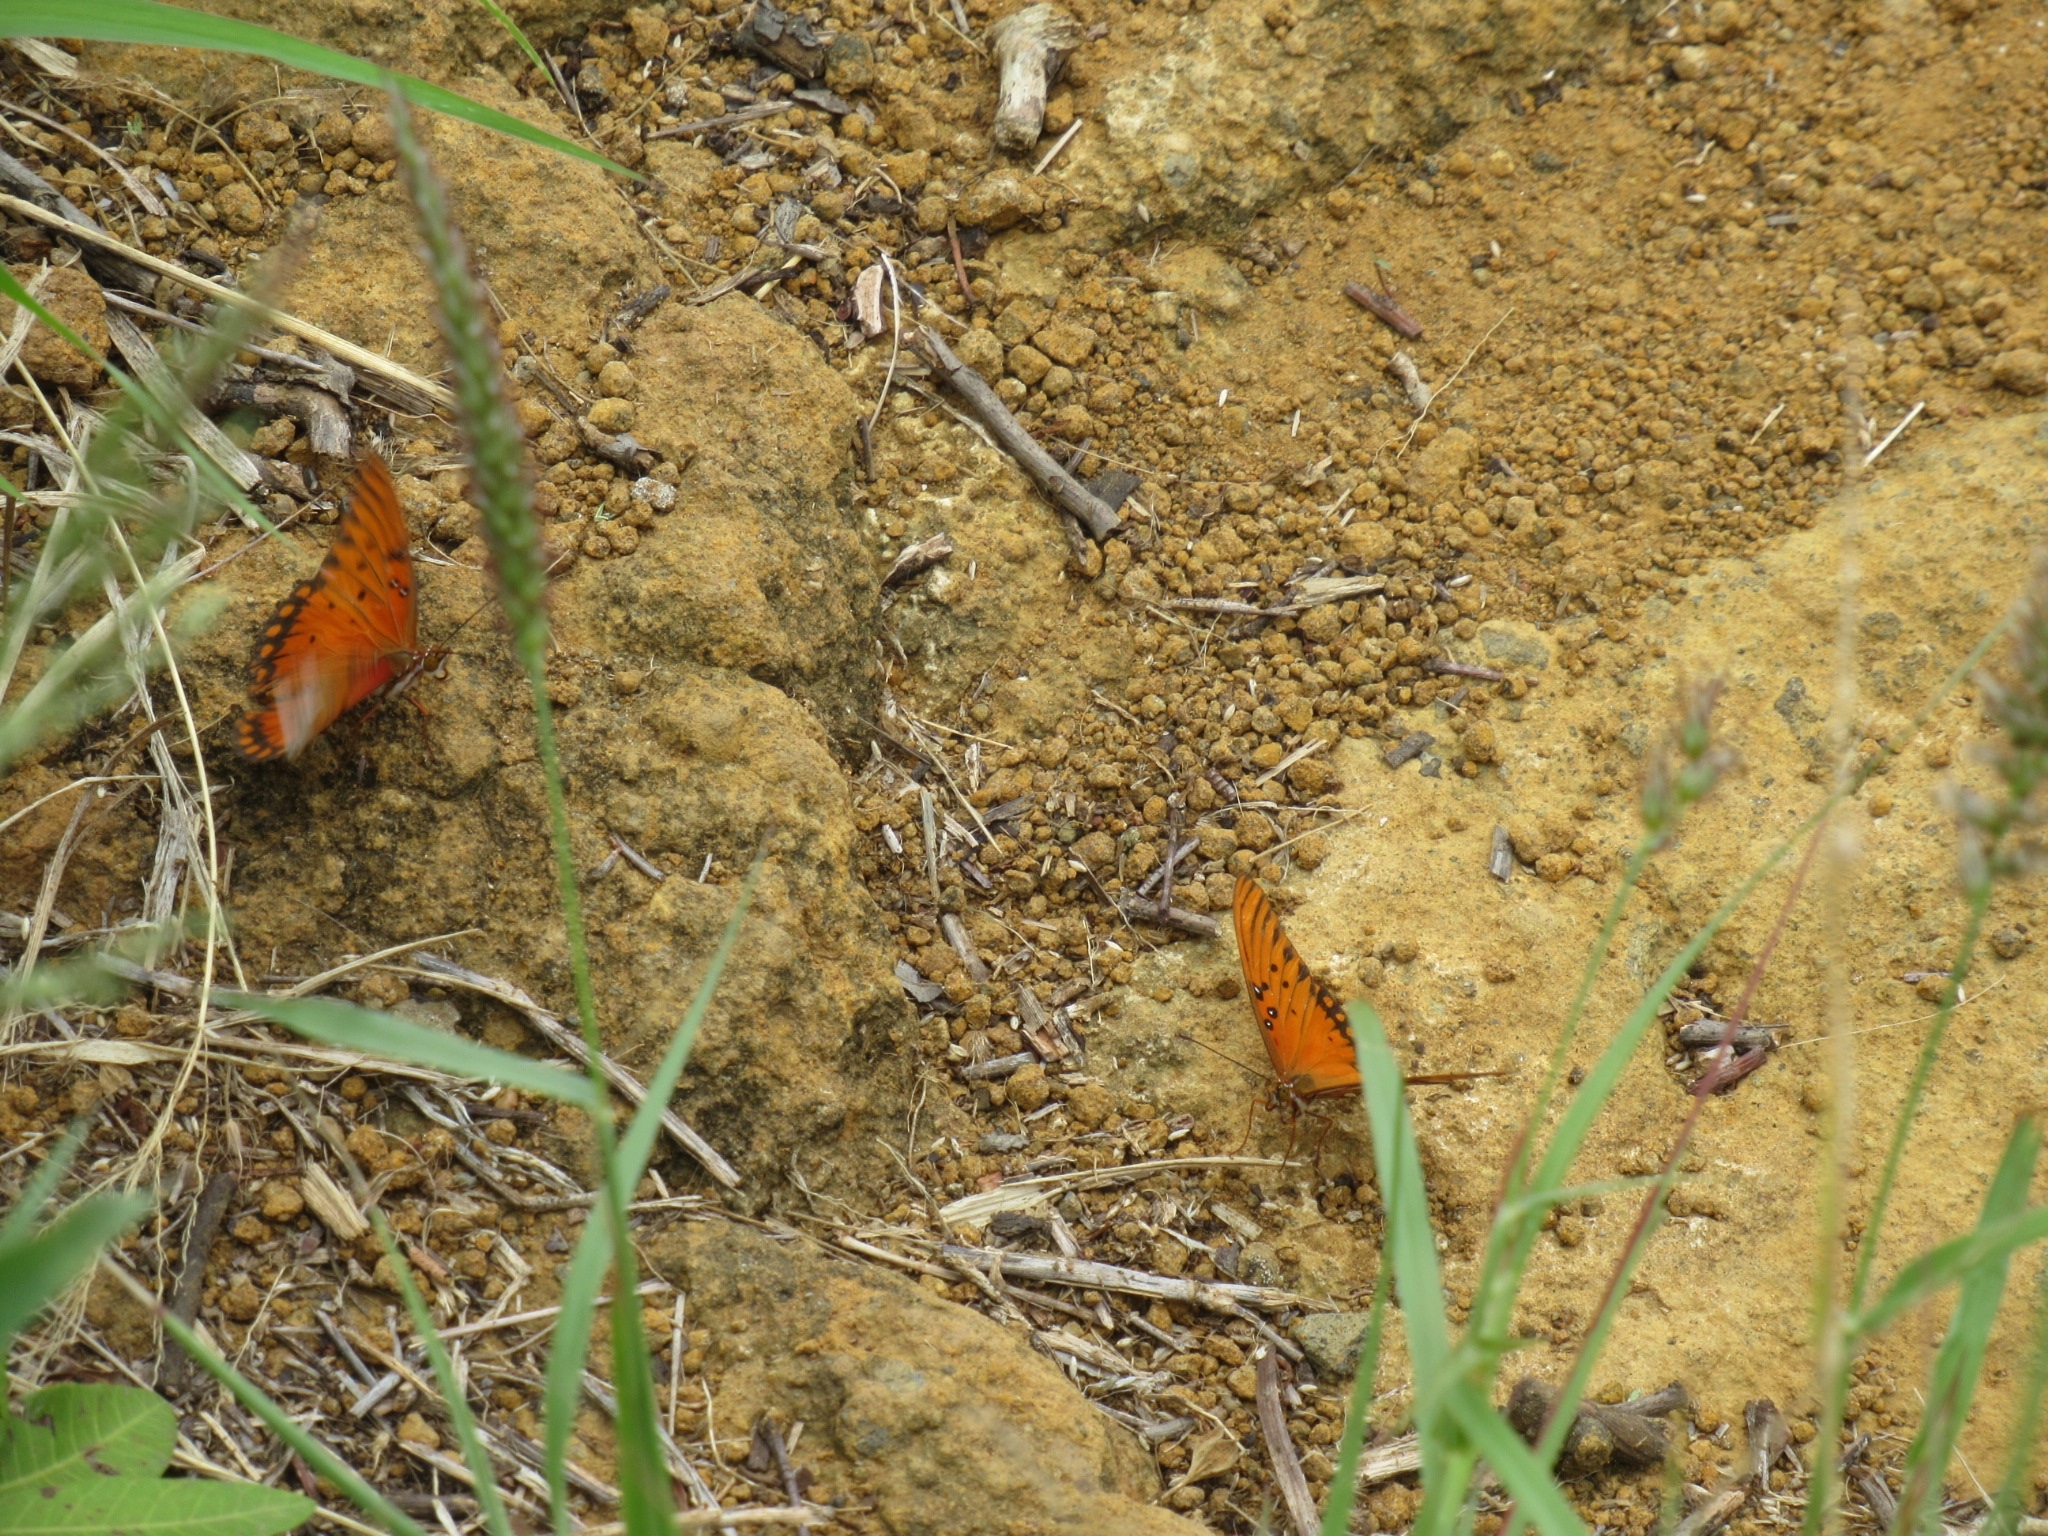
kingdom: Animalia
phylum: Arthropoda
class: Insecta
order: Lepidoptera
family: Nymphalidae
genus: Dione
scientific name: Dione vanillae
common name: Gulf fritillary
